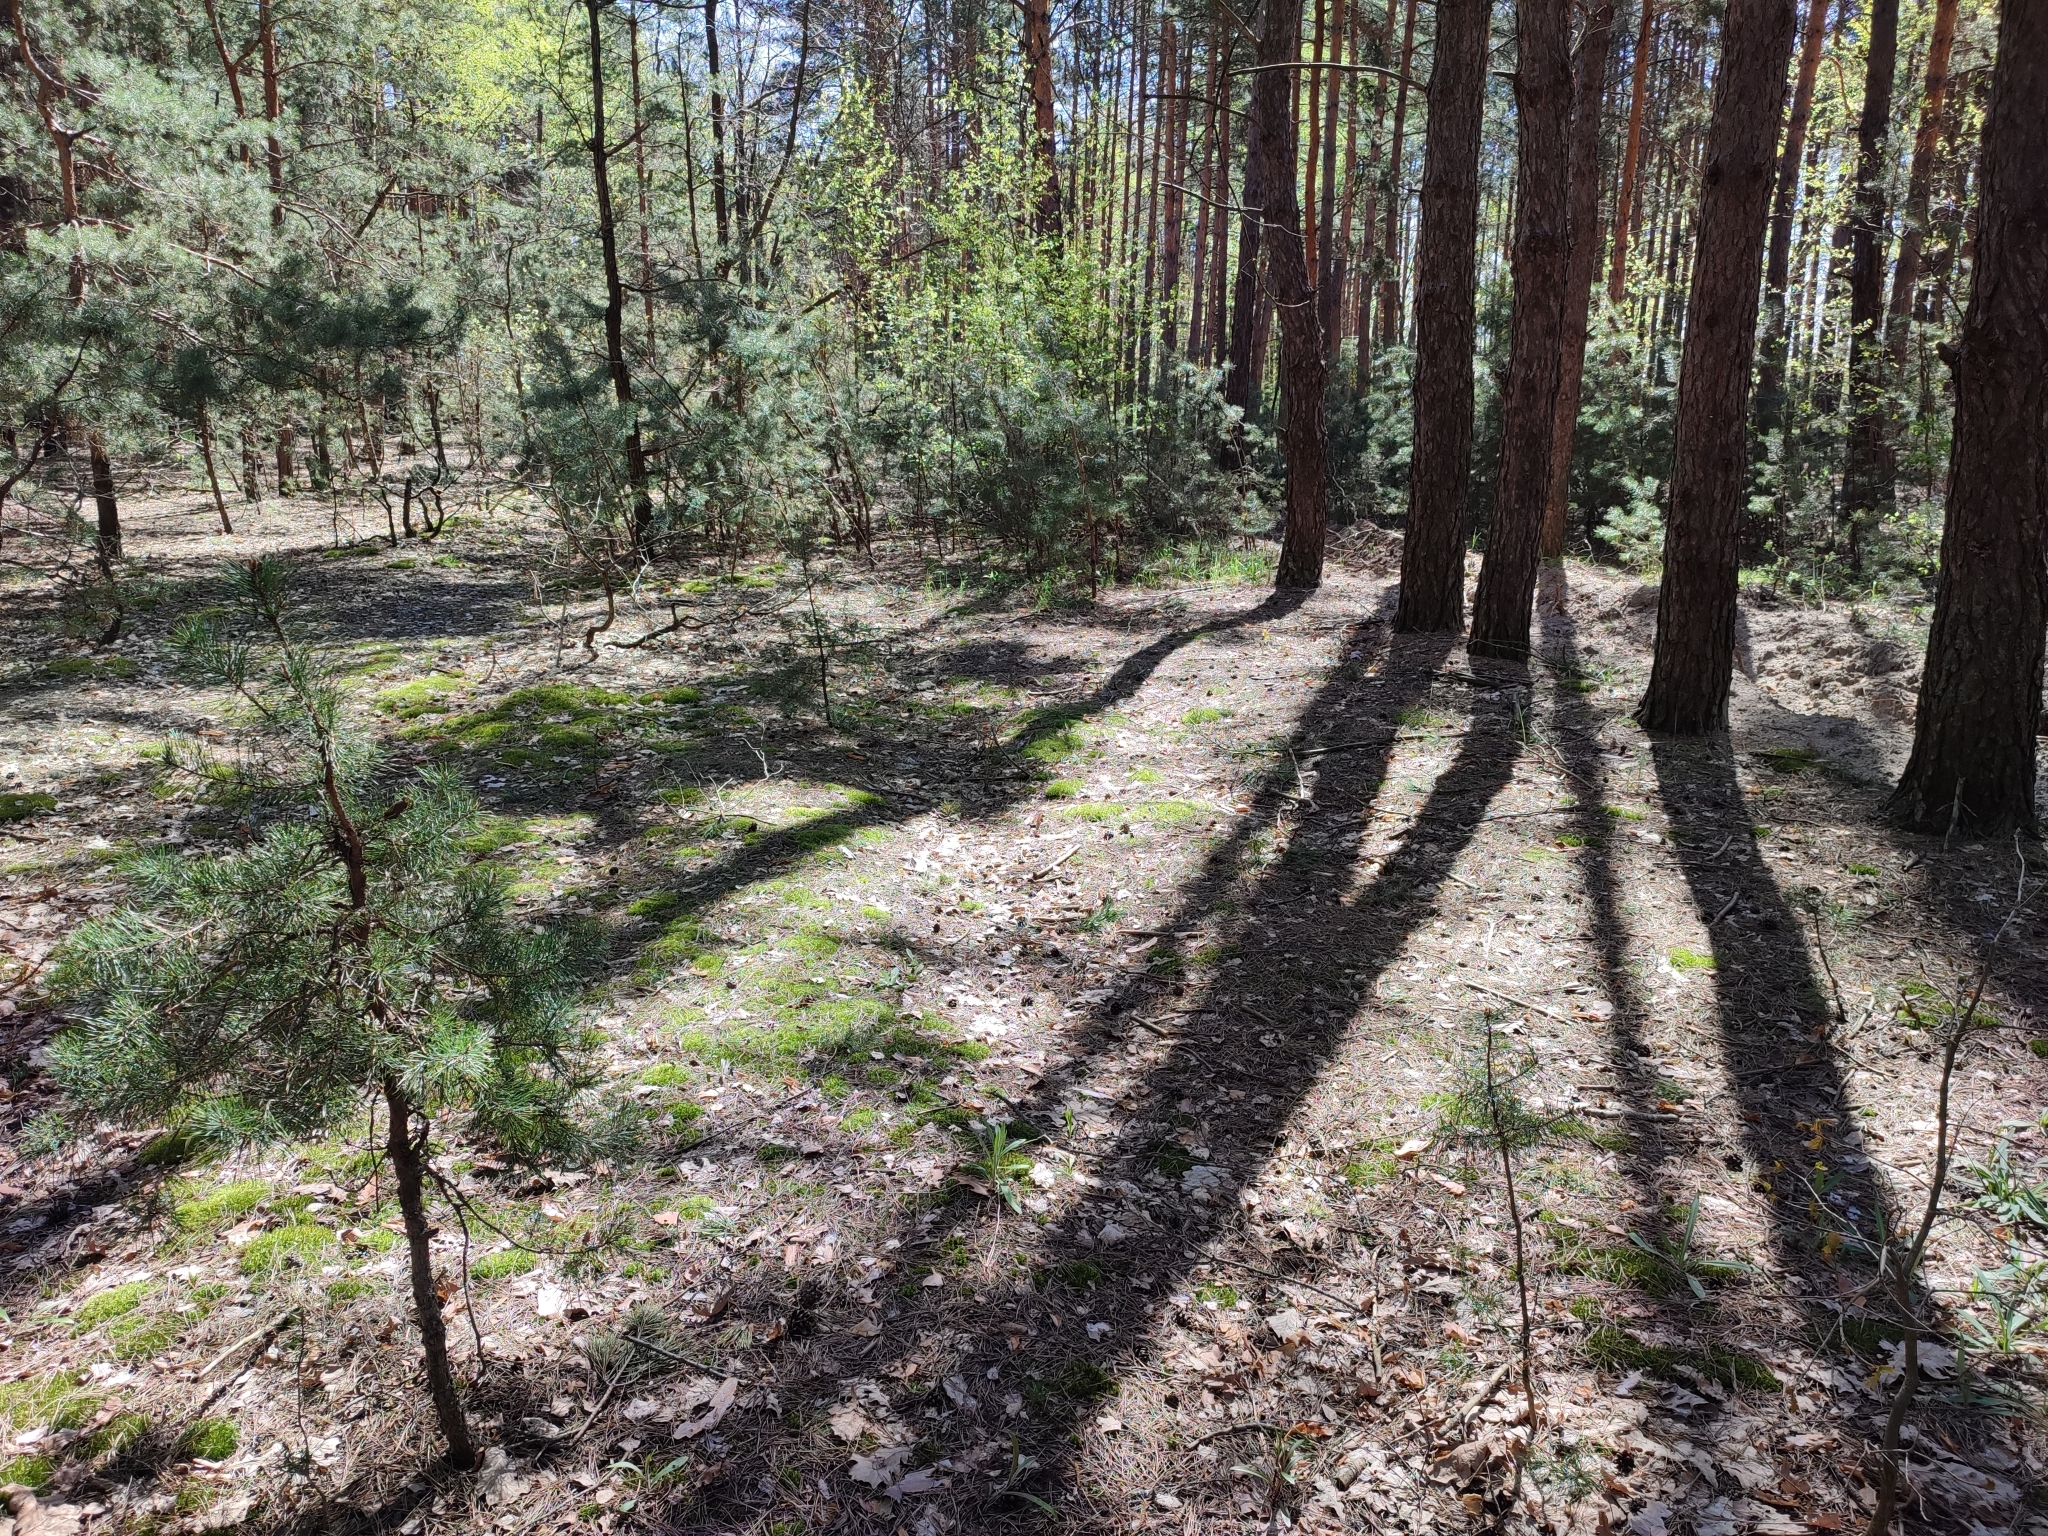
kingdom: Plantae
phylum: Tracheophyta
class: Pinopsida
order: Pinales
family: Pinaceae
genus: Pinus
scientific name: Pinus sylvestris
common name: Scots pine
